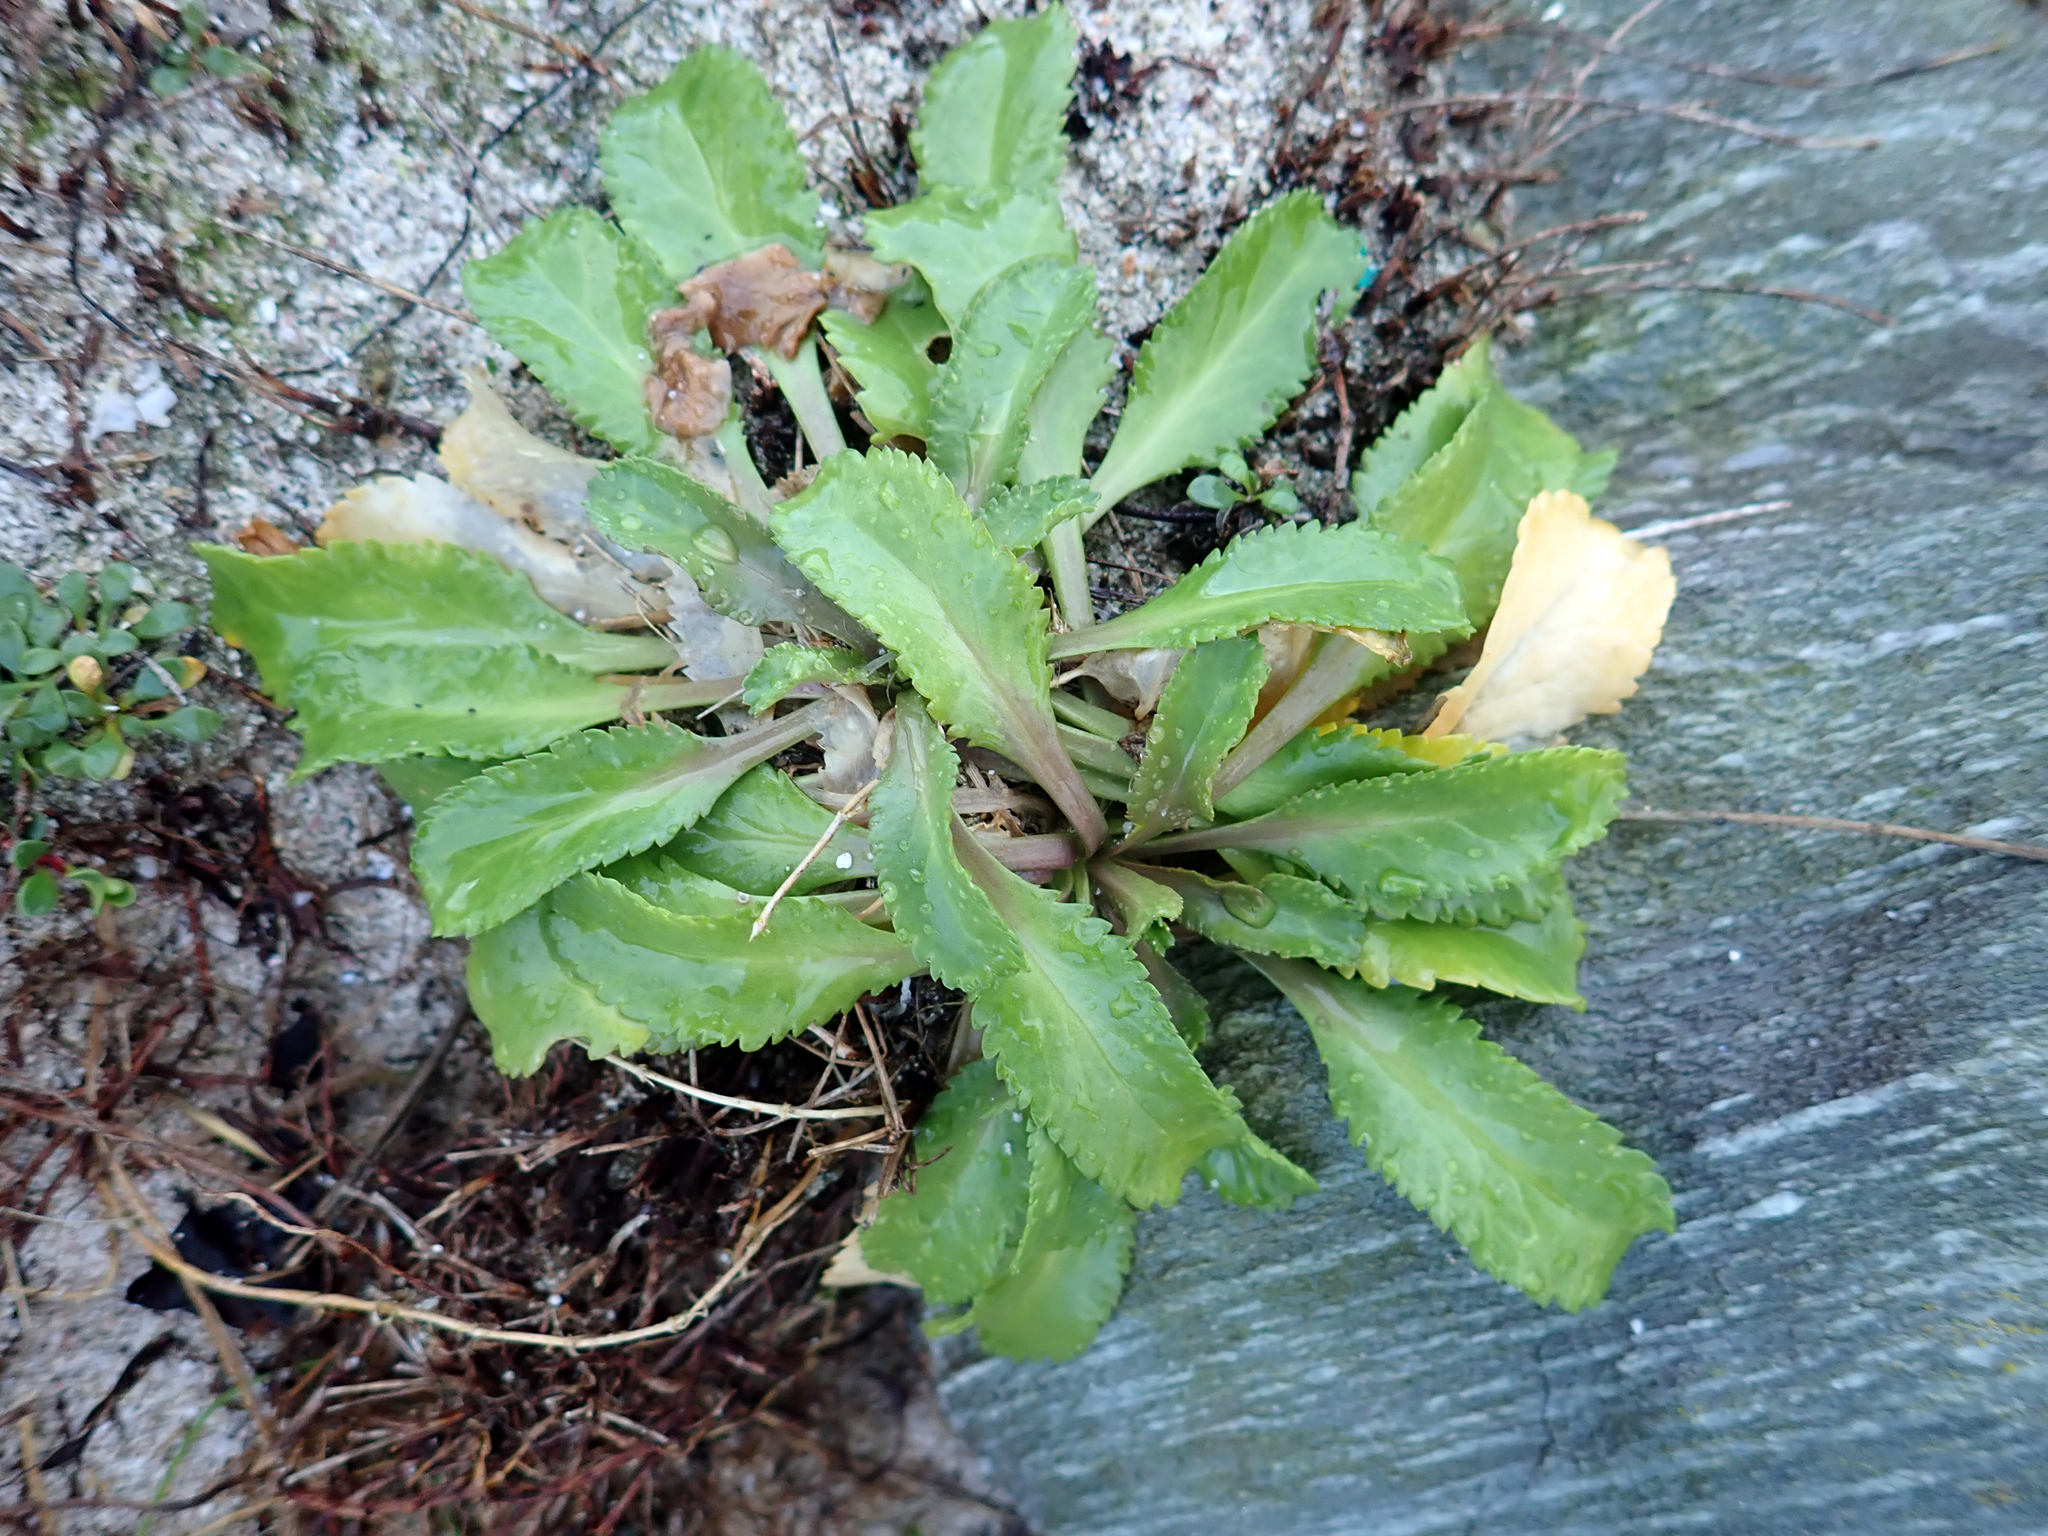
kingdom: Plantae
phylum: Tracheophyta
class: Magnoliopsida
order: Brassicales
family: Brassicaceae
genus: Lepidium
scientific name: Lepidium rekohuense
